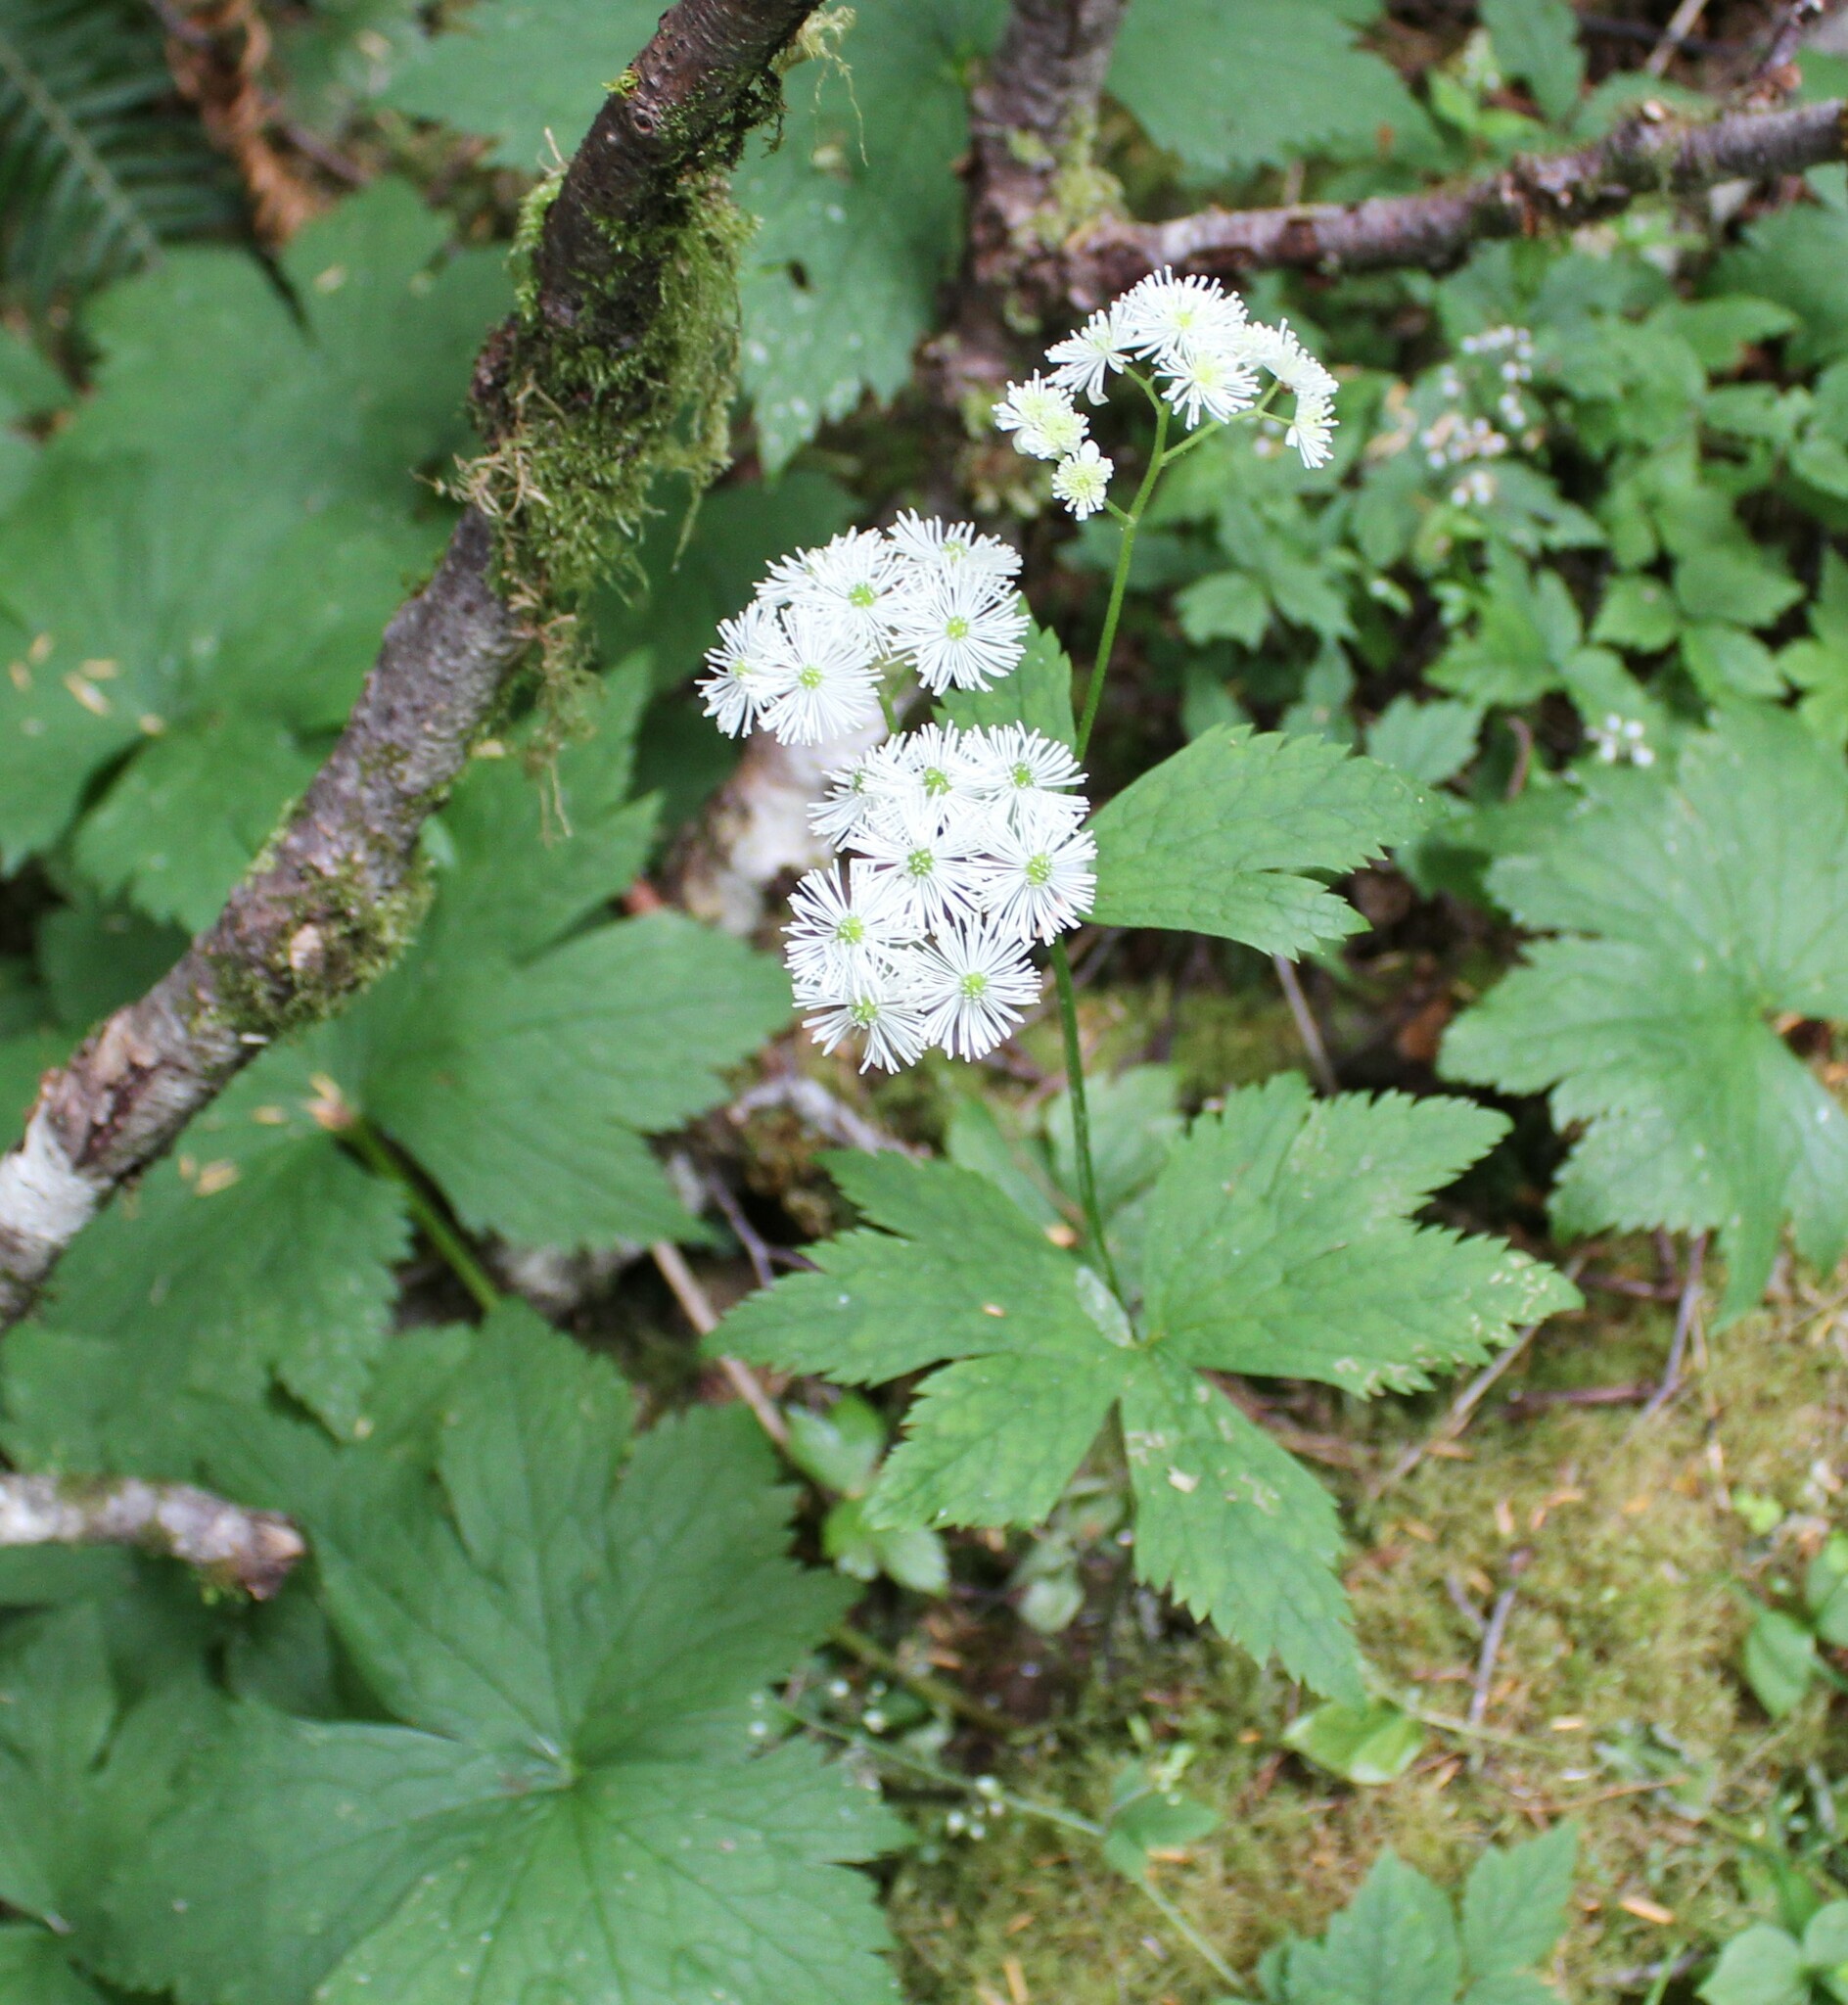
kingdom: Plantae
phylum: Tracheophyta
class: Magnoliopsida
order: Ranunculales
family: Ranunculaceae
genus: Trautvetteria
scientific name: Trautvetteria carolinensis
